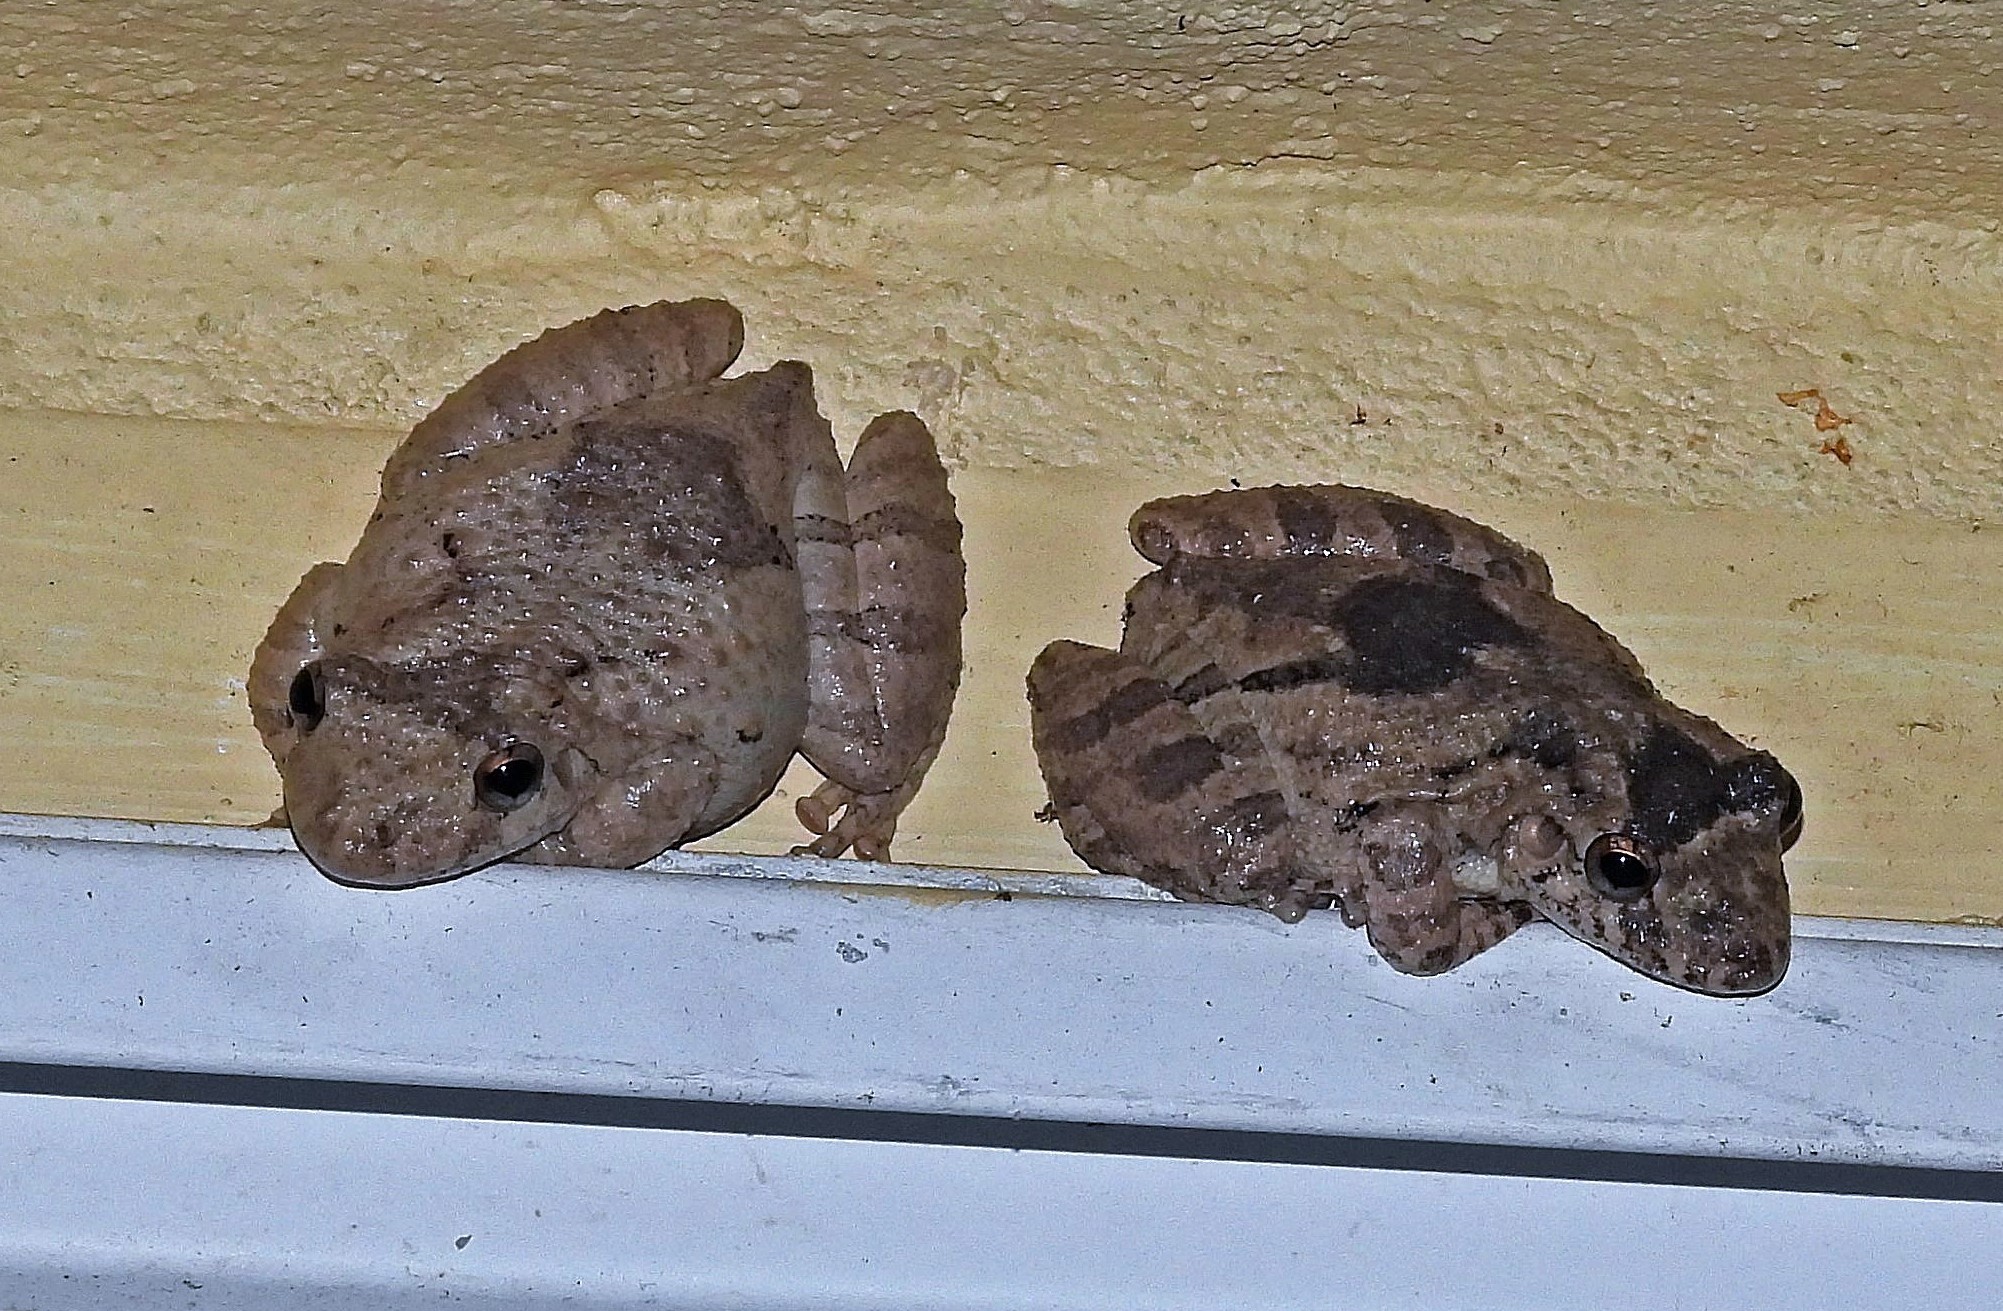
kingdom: Animalia
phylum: Chordata
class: Amphibia
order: Anura
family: Hylidae
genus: Scinax
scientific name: Scinax acuminatus
